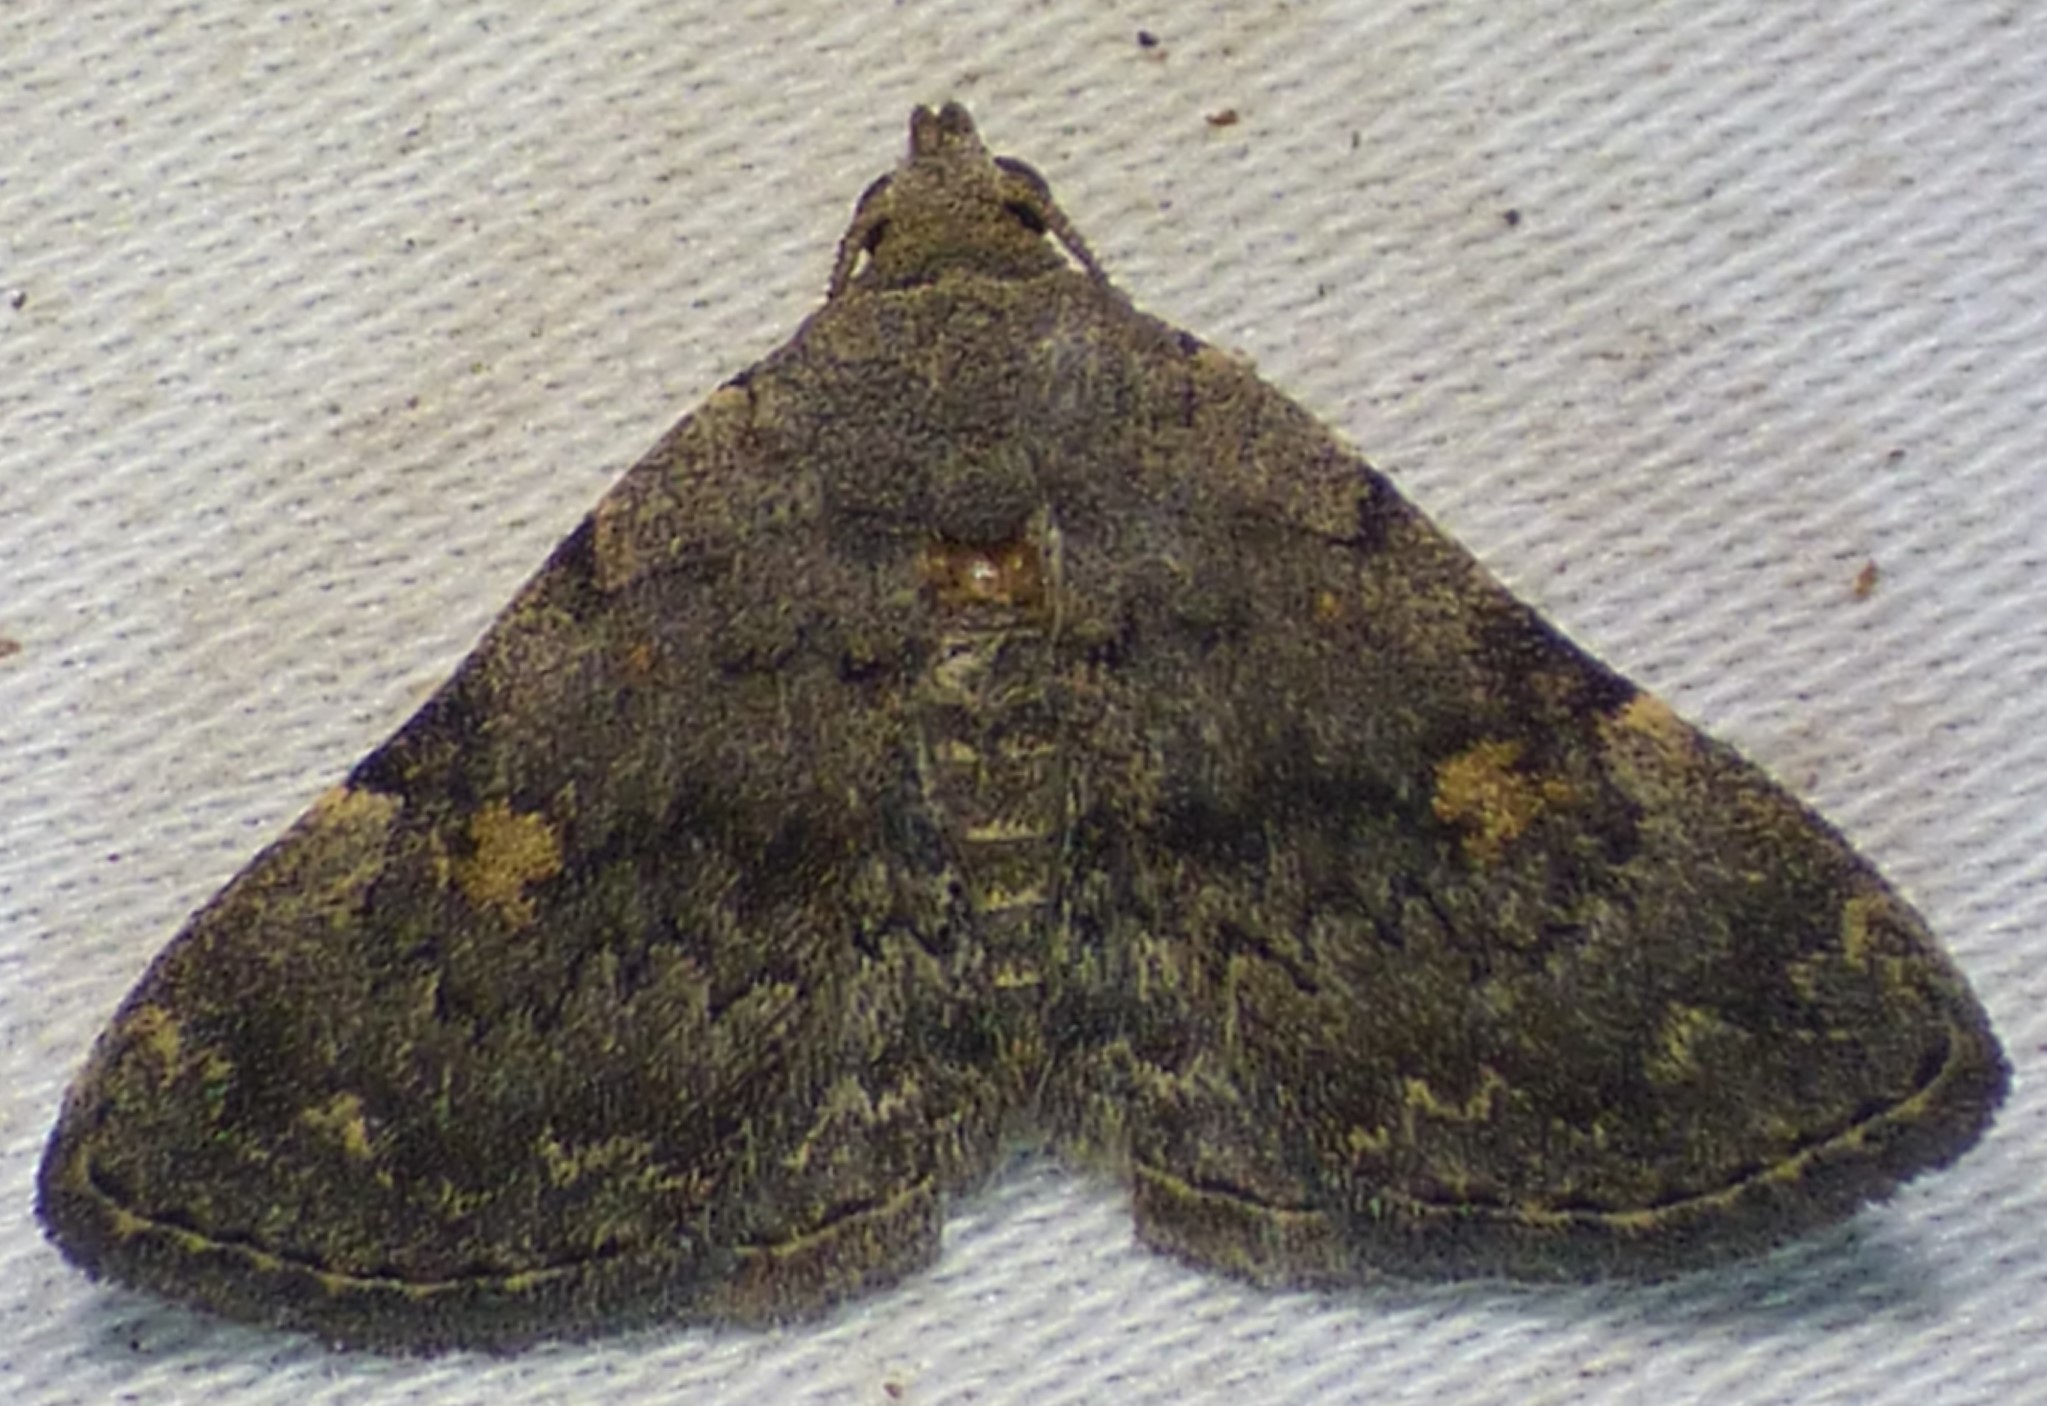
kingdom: Animalia
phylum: Arthropoda
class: Insecta
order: Lepidoptera
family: Erebidae
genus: Idia
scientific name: Idia aemula
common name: Common idia moth
